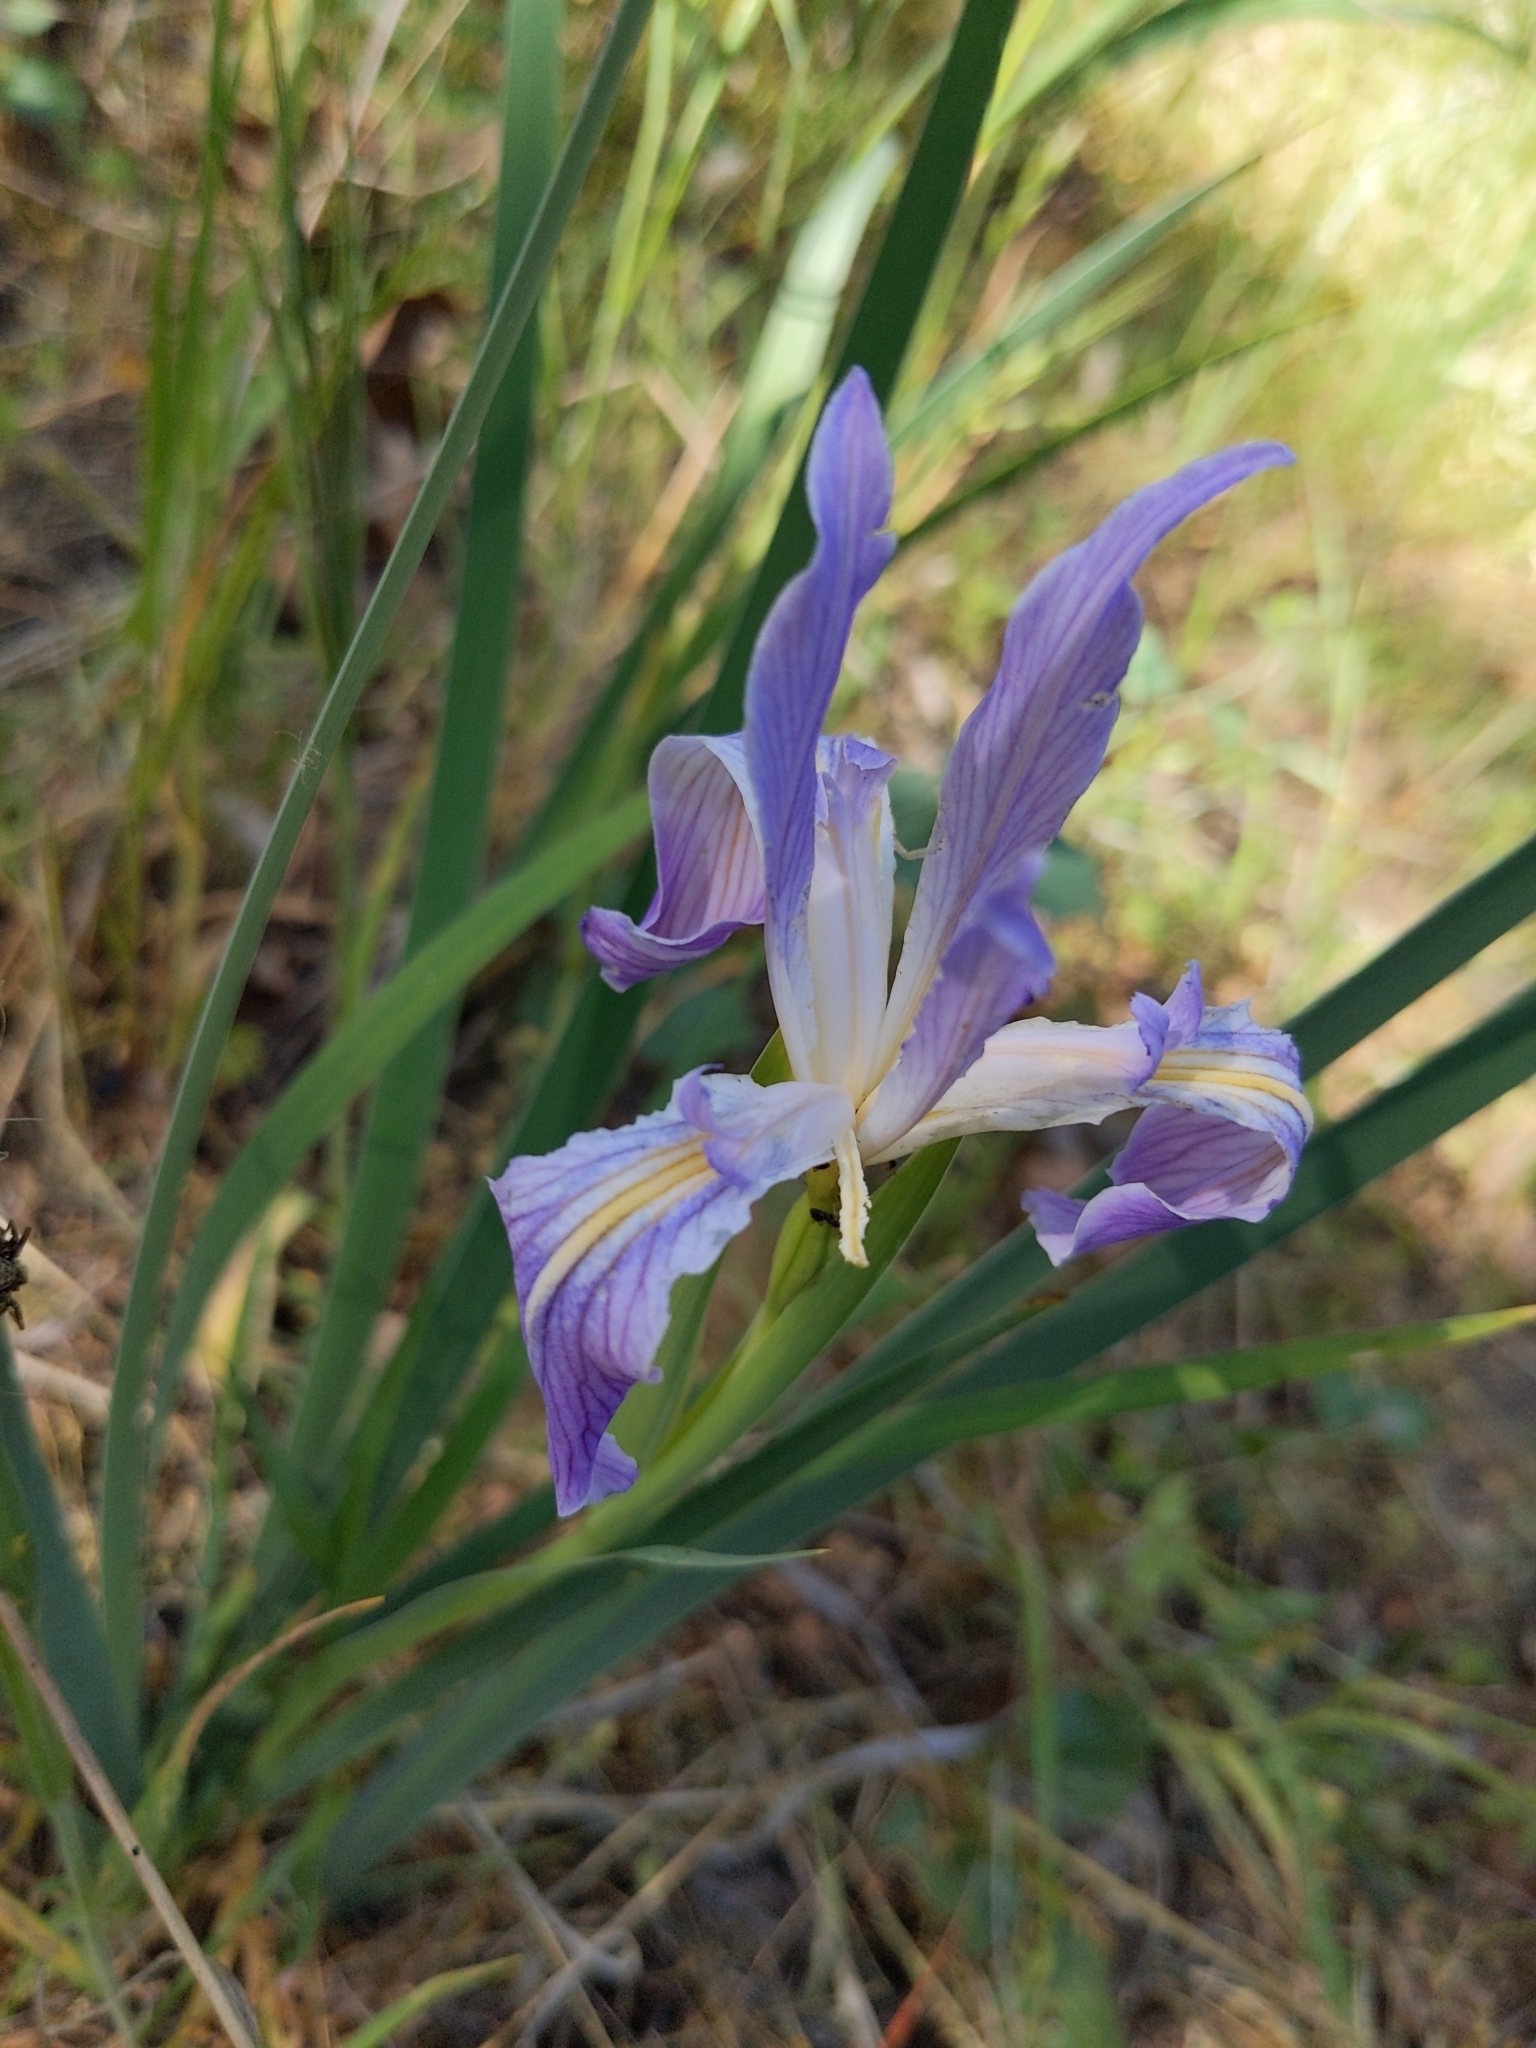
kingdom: Plantae
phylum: Tracheophyta
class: Liliopsida
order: Asparagales
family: Iridaceae
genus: Iris
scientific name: Iris munzii
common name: Munz's iris
